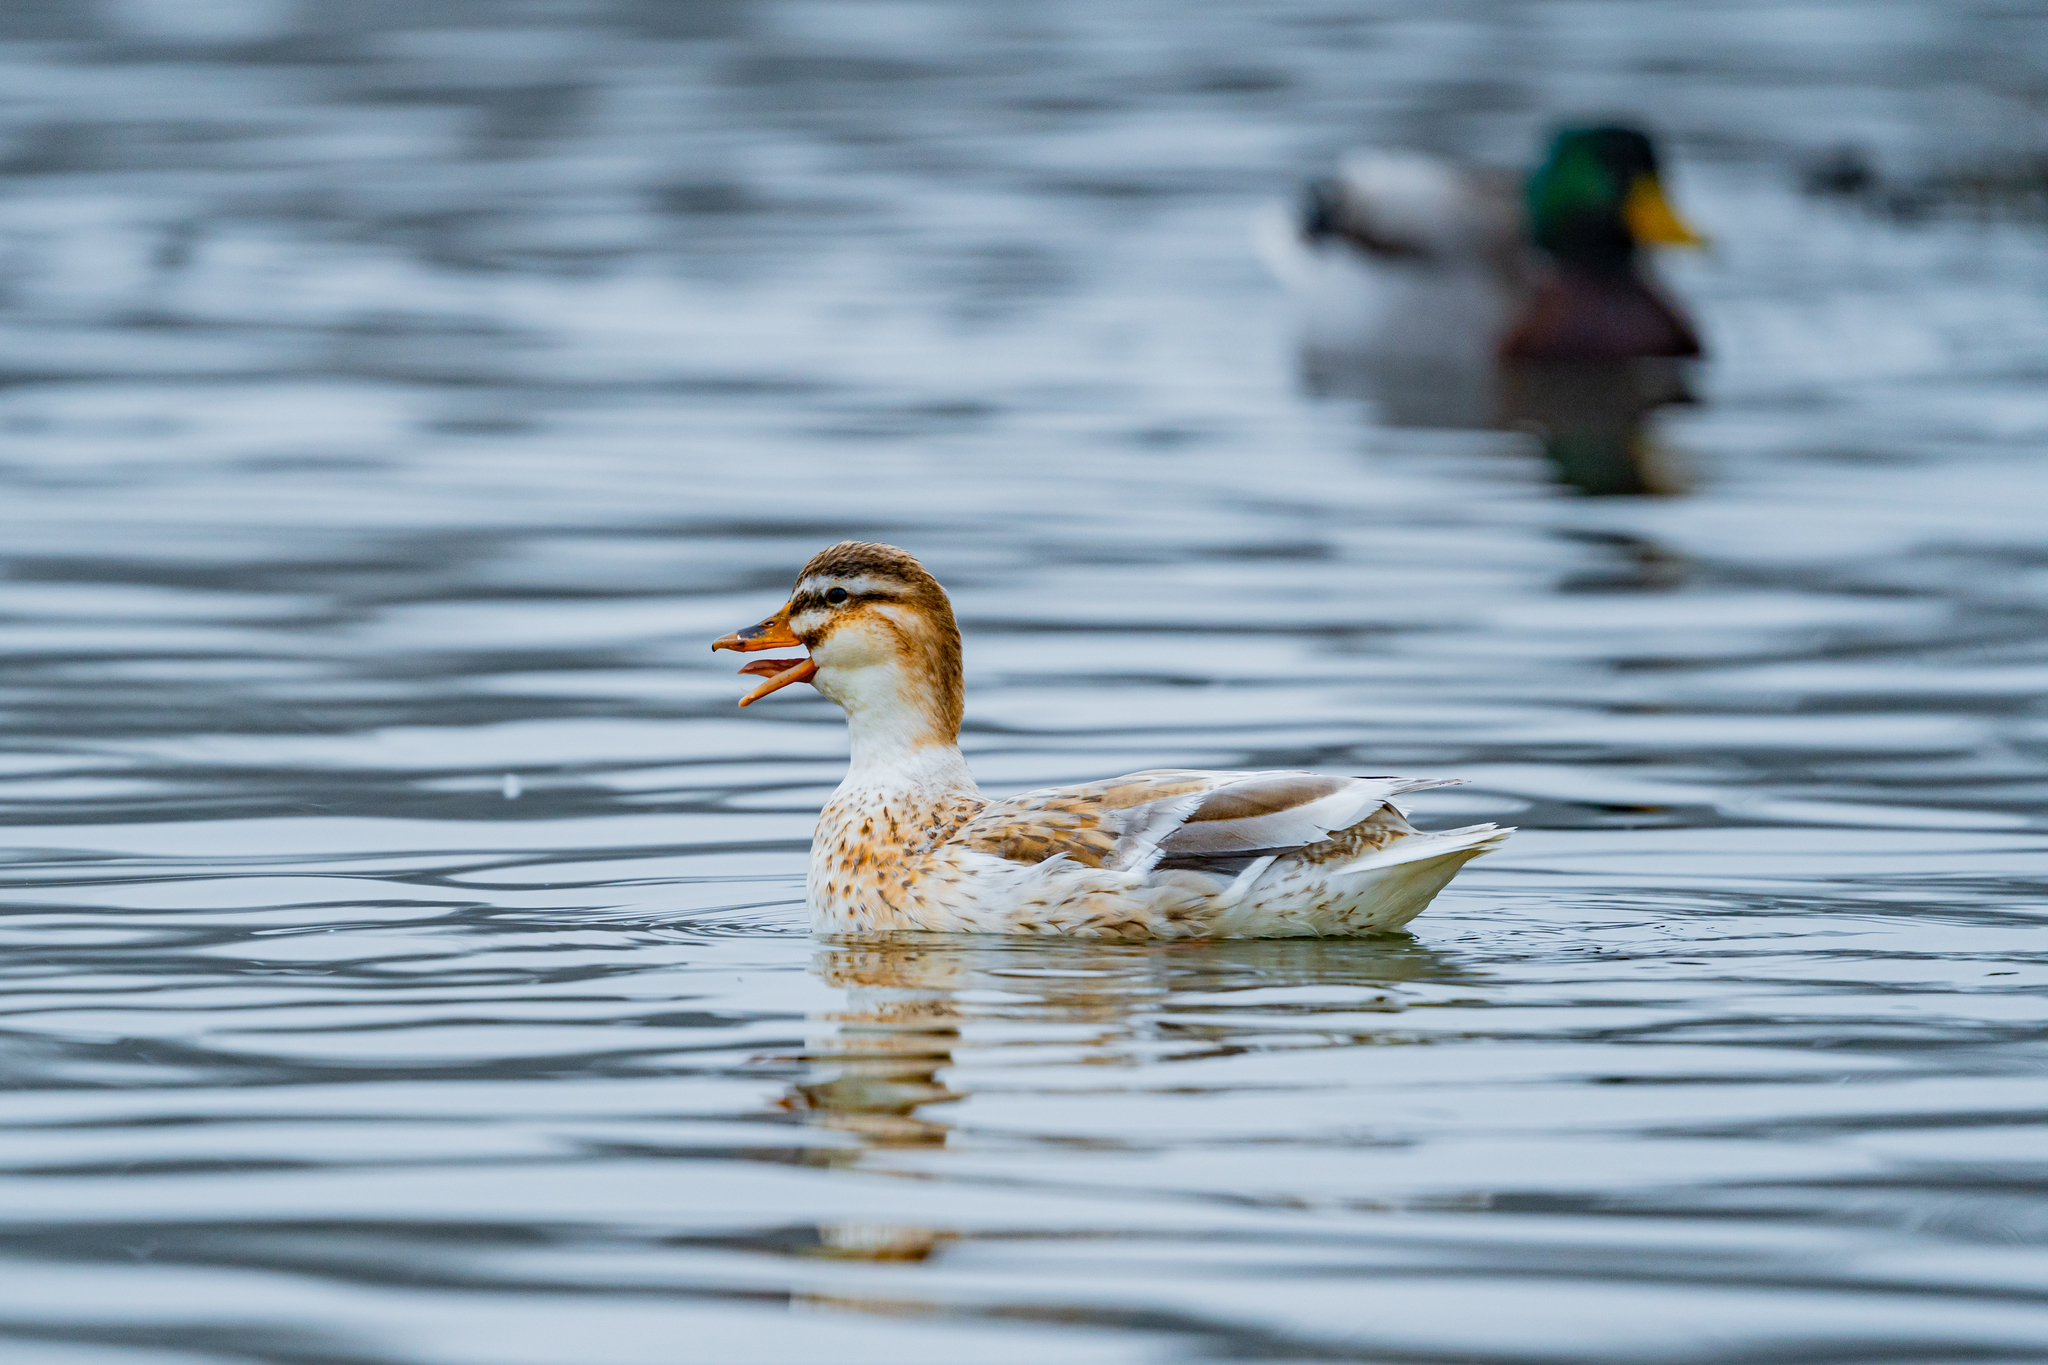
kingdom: Animalia
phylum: Chordata
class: Aves
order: Anseriformes
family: Anatidae
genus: Anas
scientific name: Anas platyrhynchos
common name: Mallard
